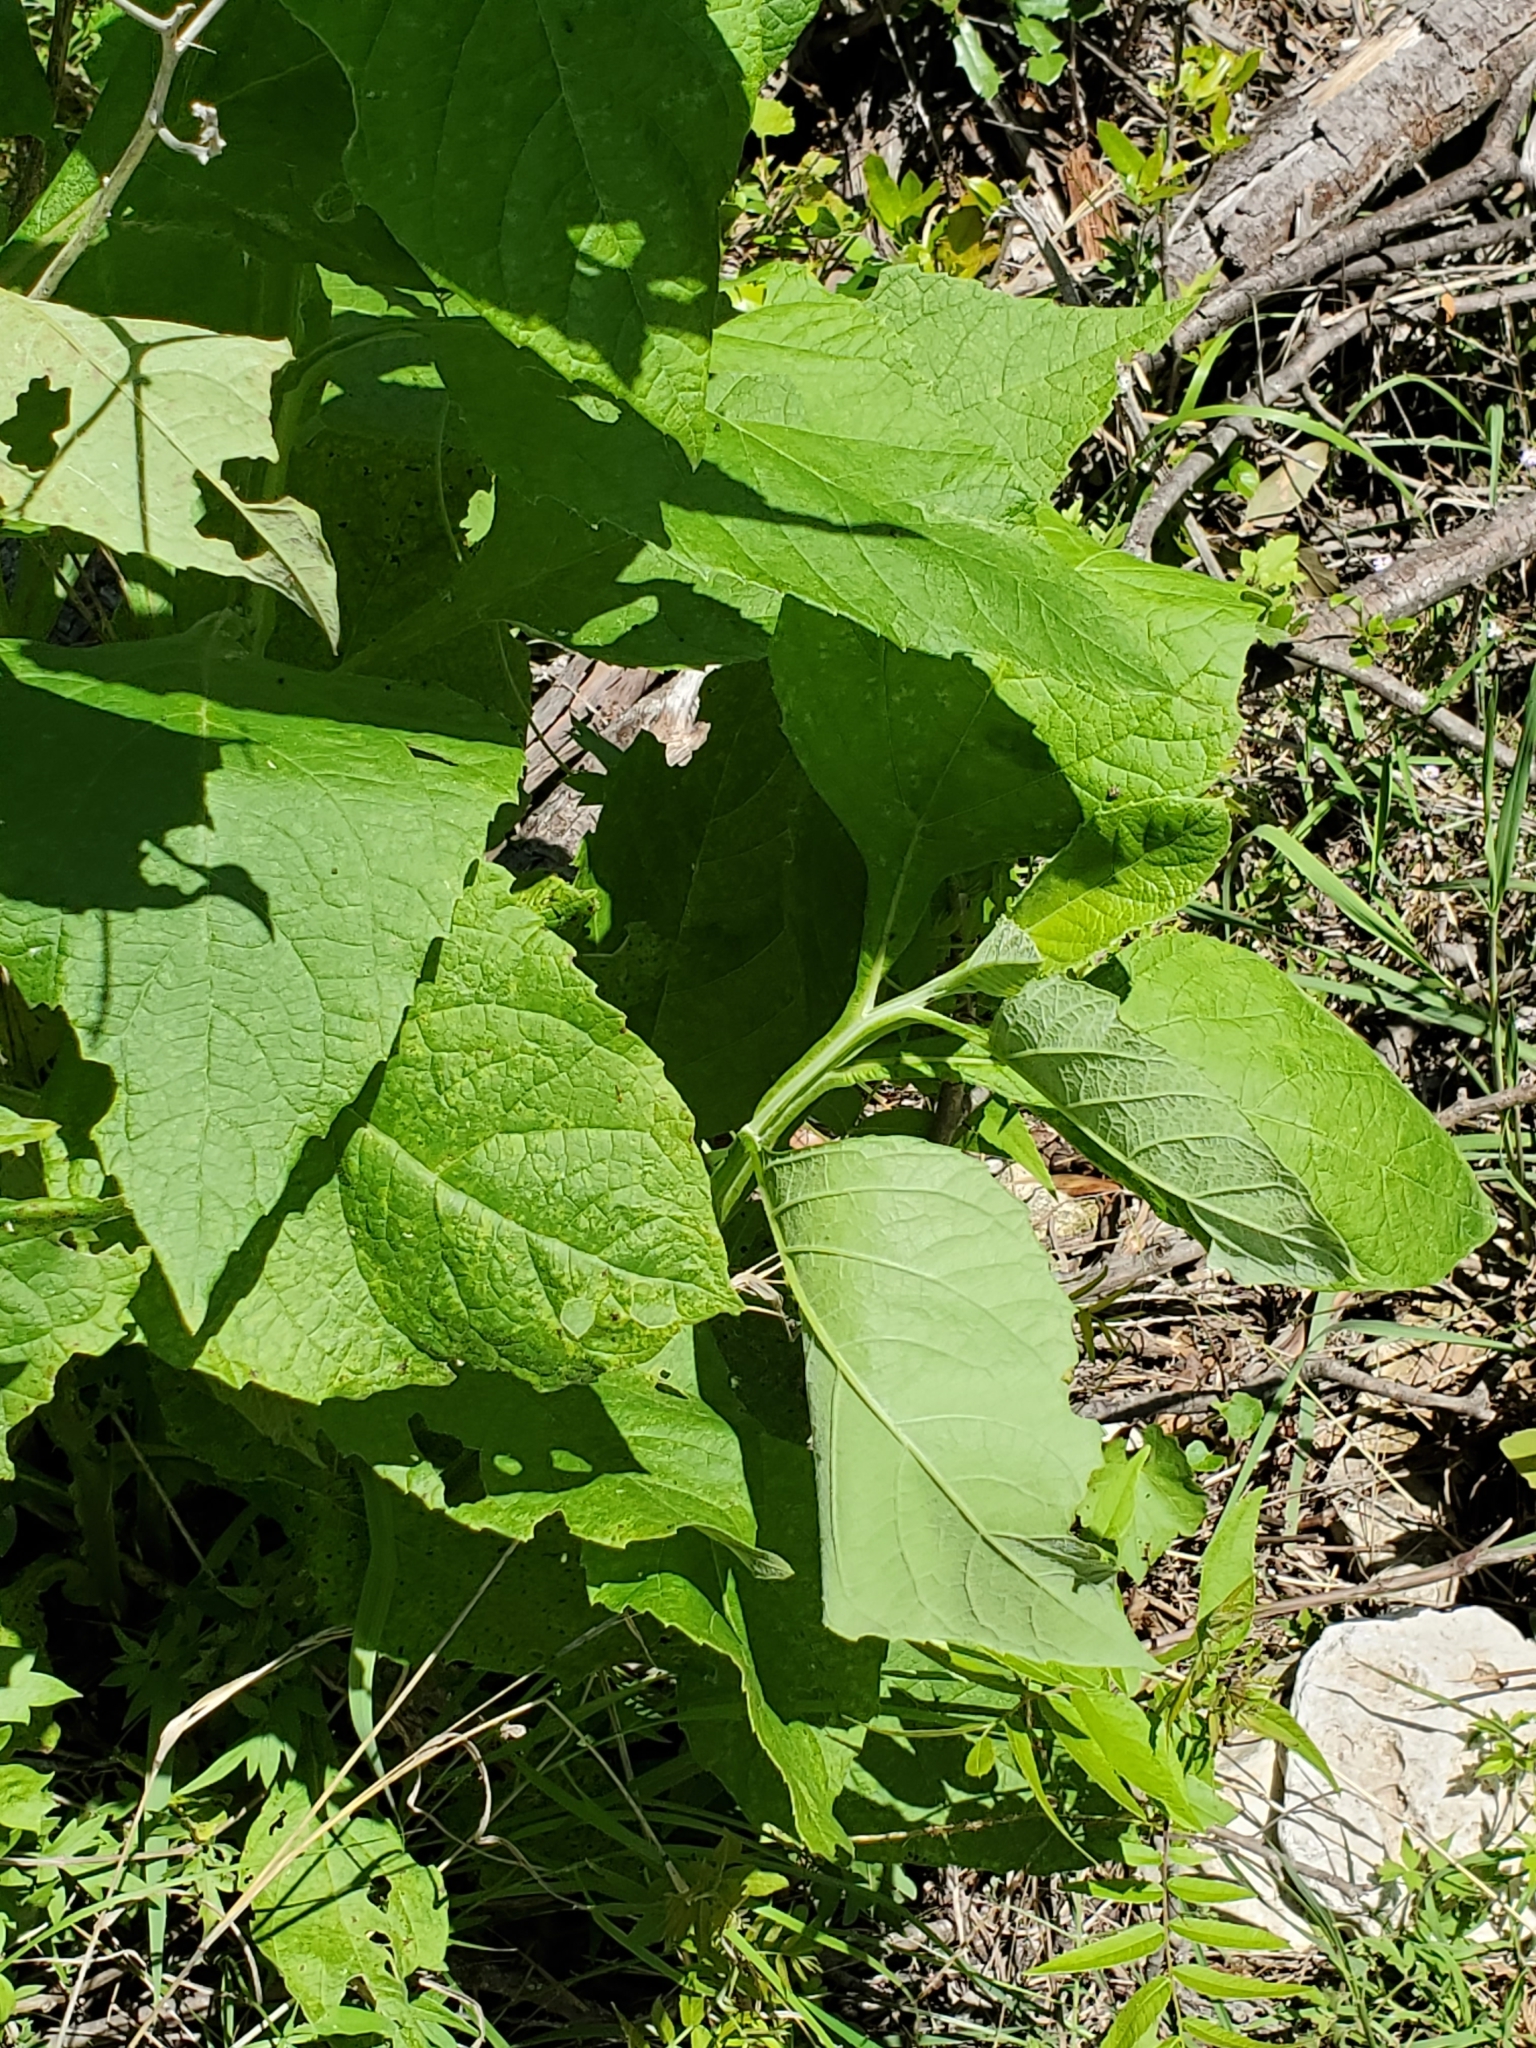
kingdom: Plantae
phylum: Tracheophyta
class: Magnoliopsida
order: Asterales
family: Asteraceae
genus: Verbesina
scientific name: Verbesina virginica
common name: Frostweed
